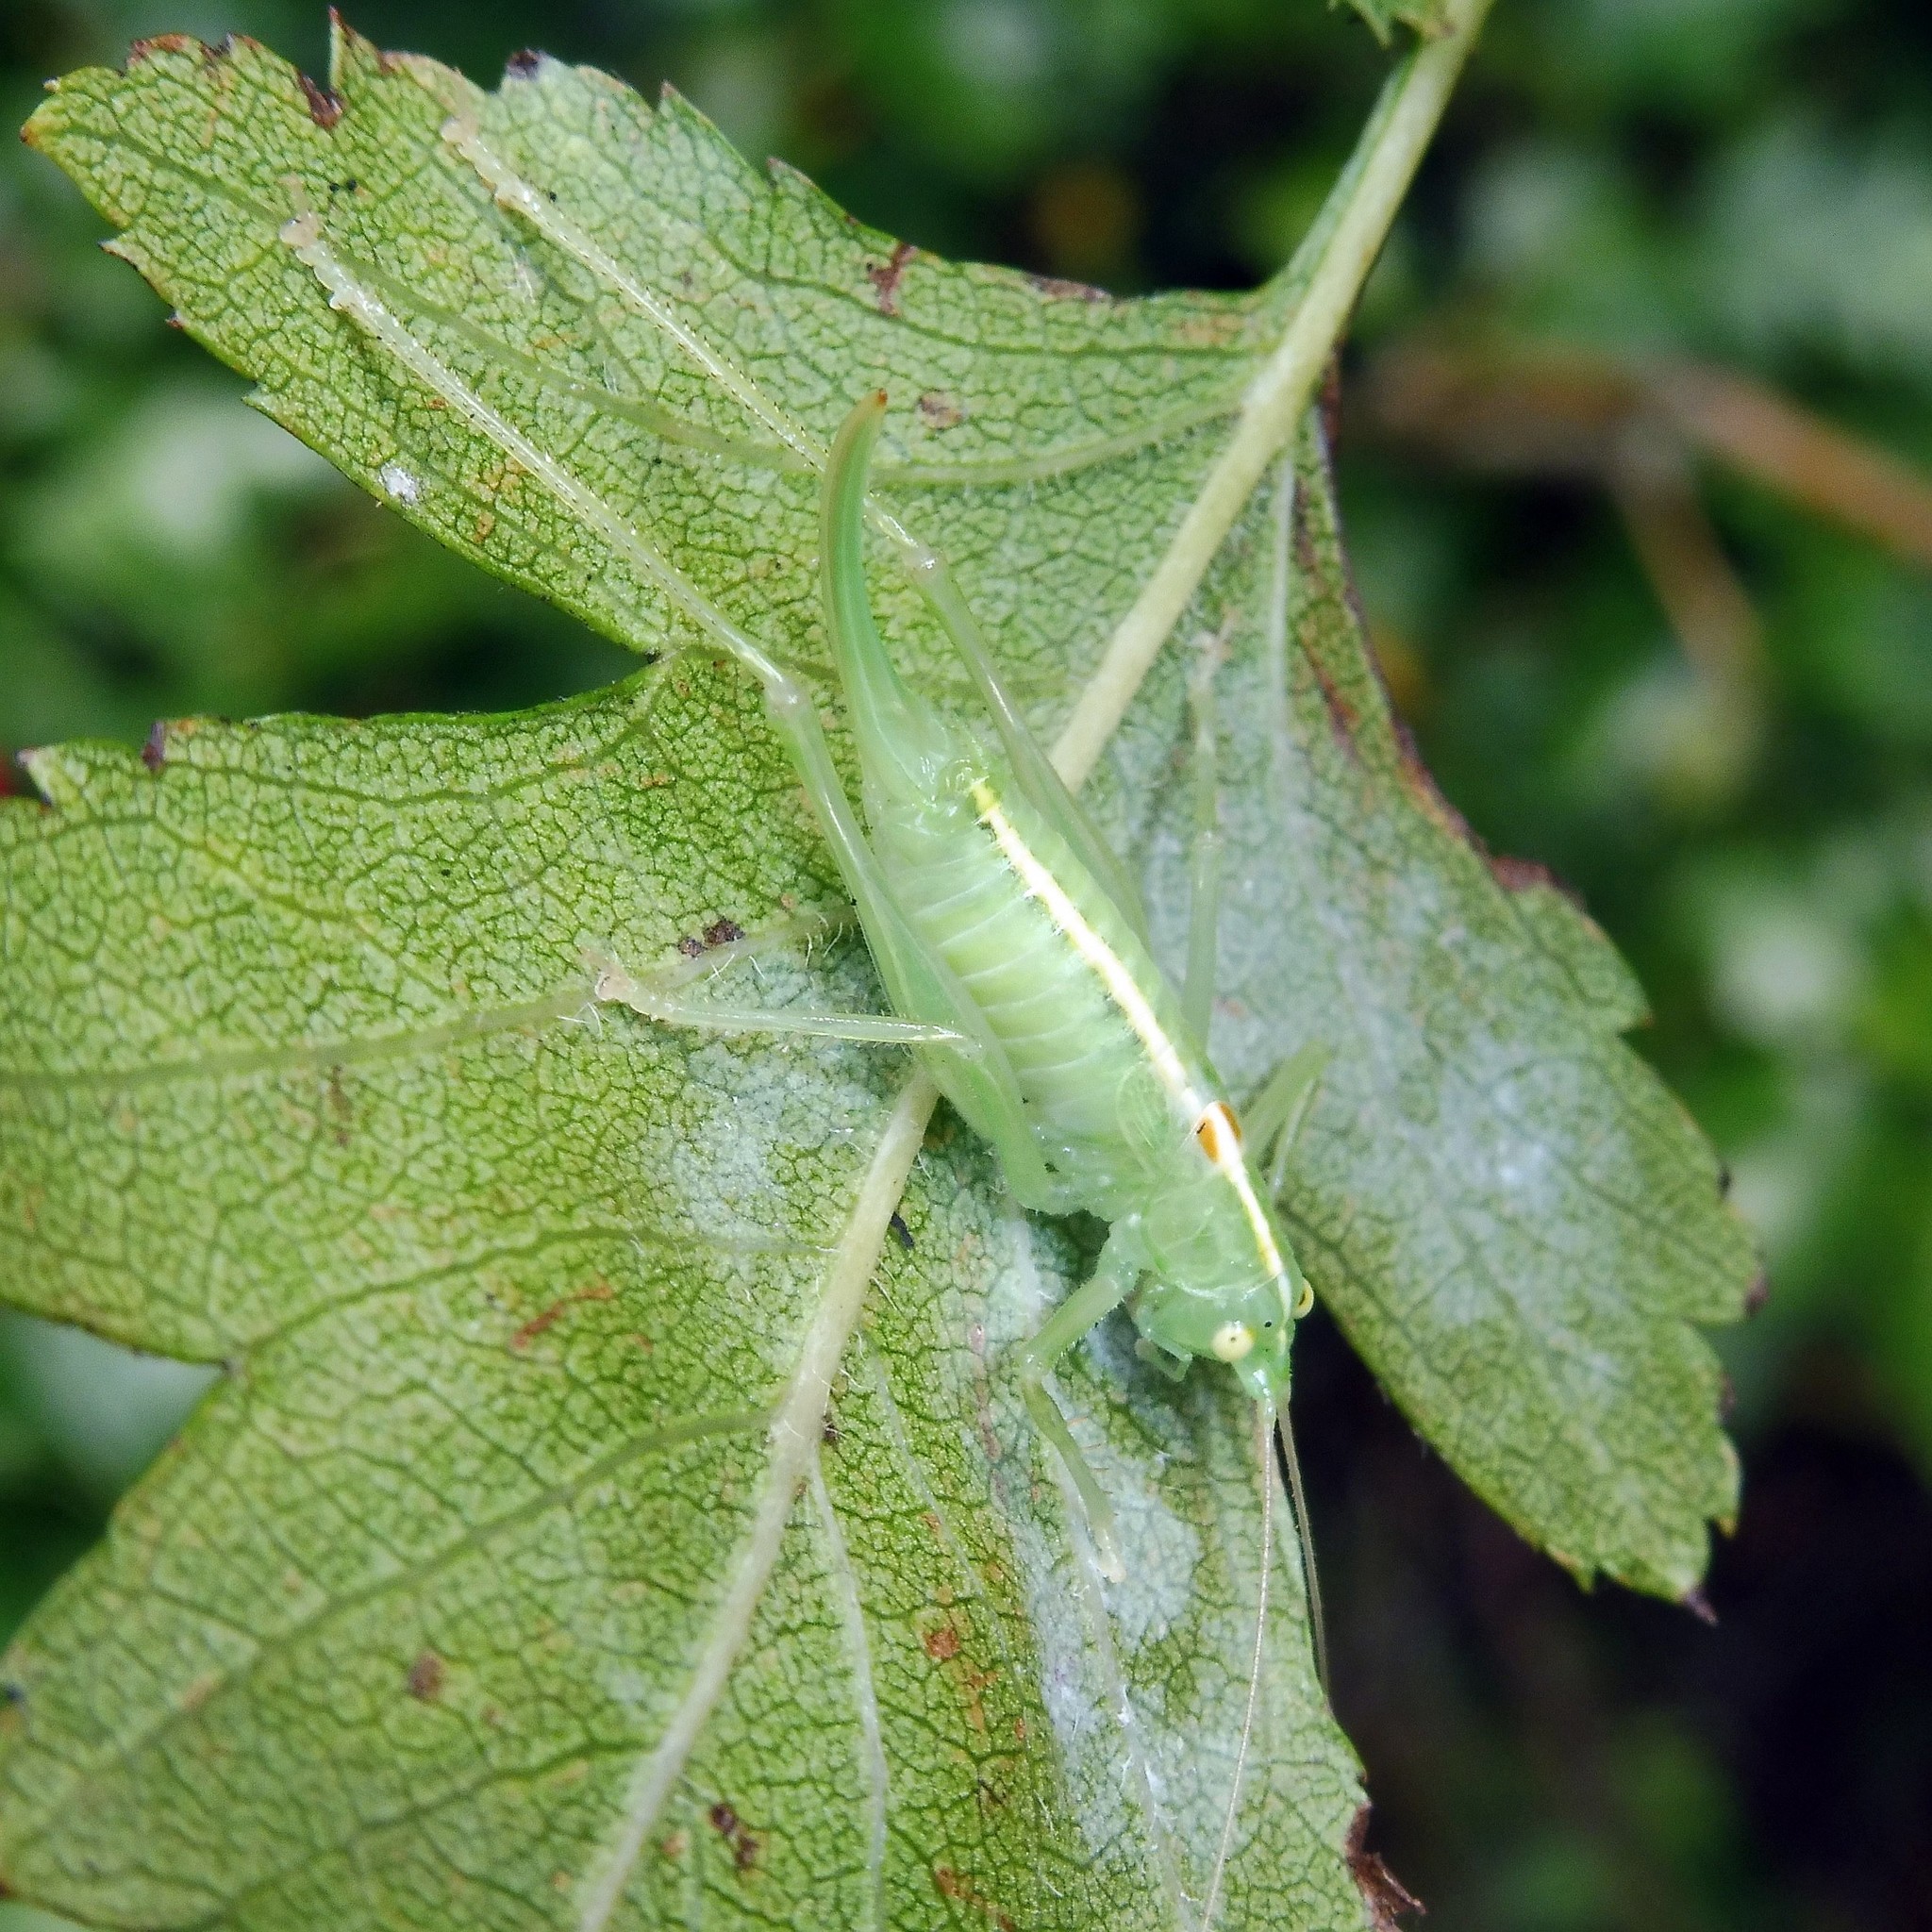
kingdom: Animalia
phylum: Arthropoda
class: Insecta
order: Orthoptera
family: Tettigoniidae
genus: Meconema
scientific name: Meconema meridionale
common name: Southern oak bush-cricket
